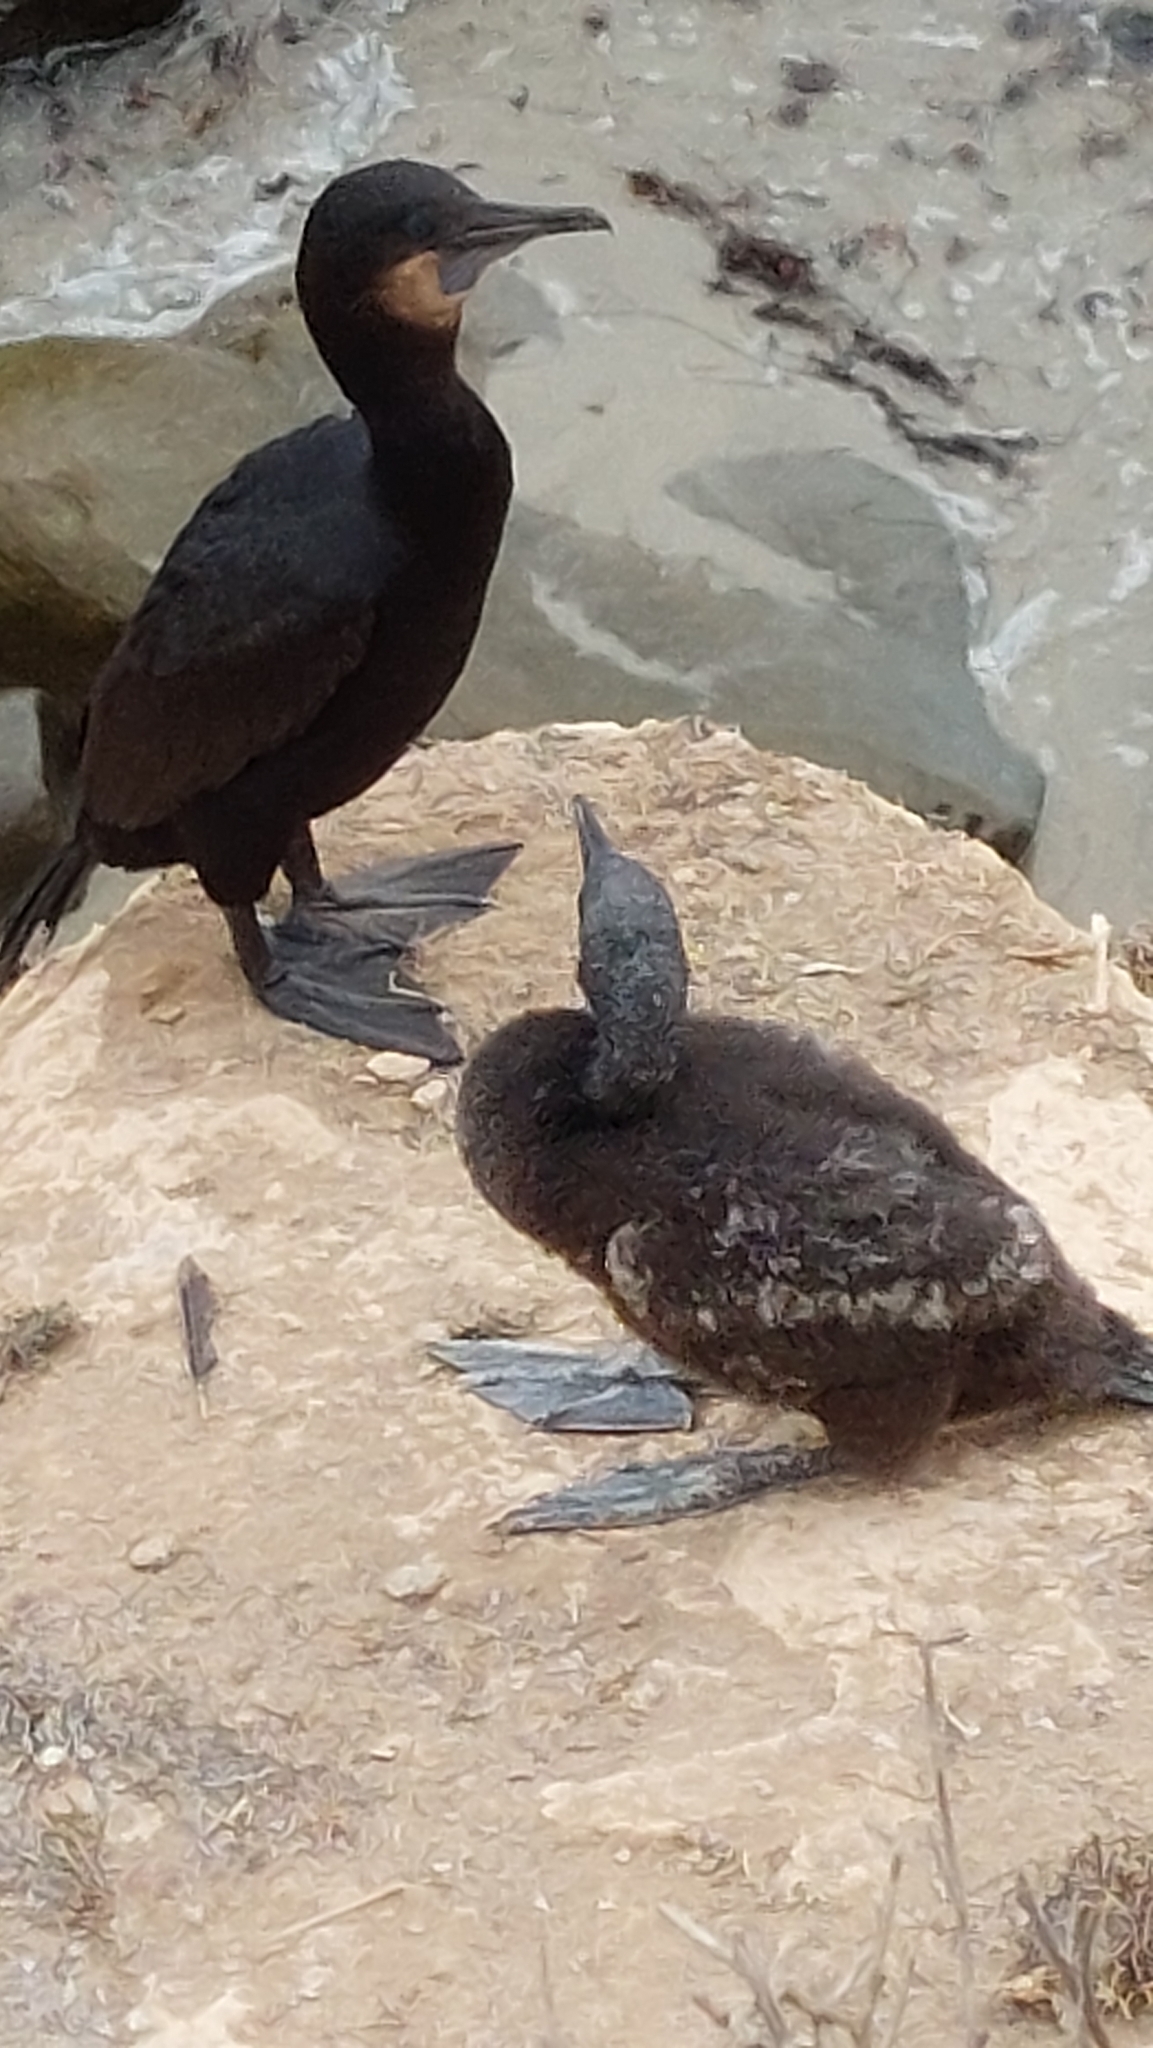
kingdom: Animalia
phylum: Chordata
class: Aves
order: Suliformes
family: Phalacrocoracidae
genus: Urile
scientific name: Urile penicillatus
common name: Brandt's cormorant
